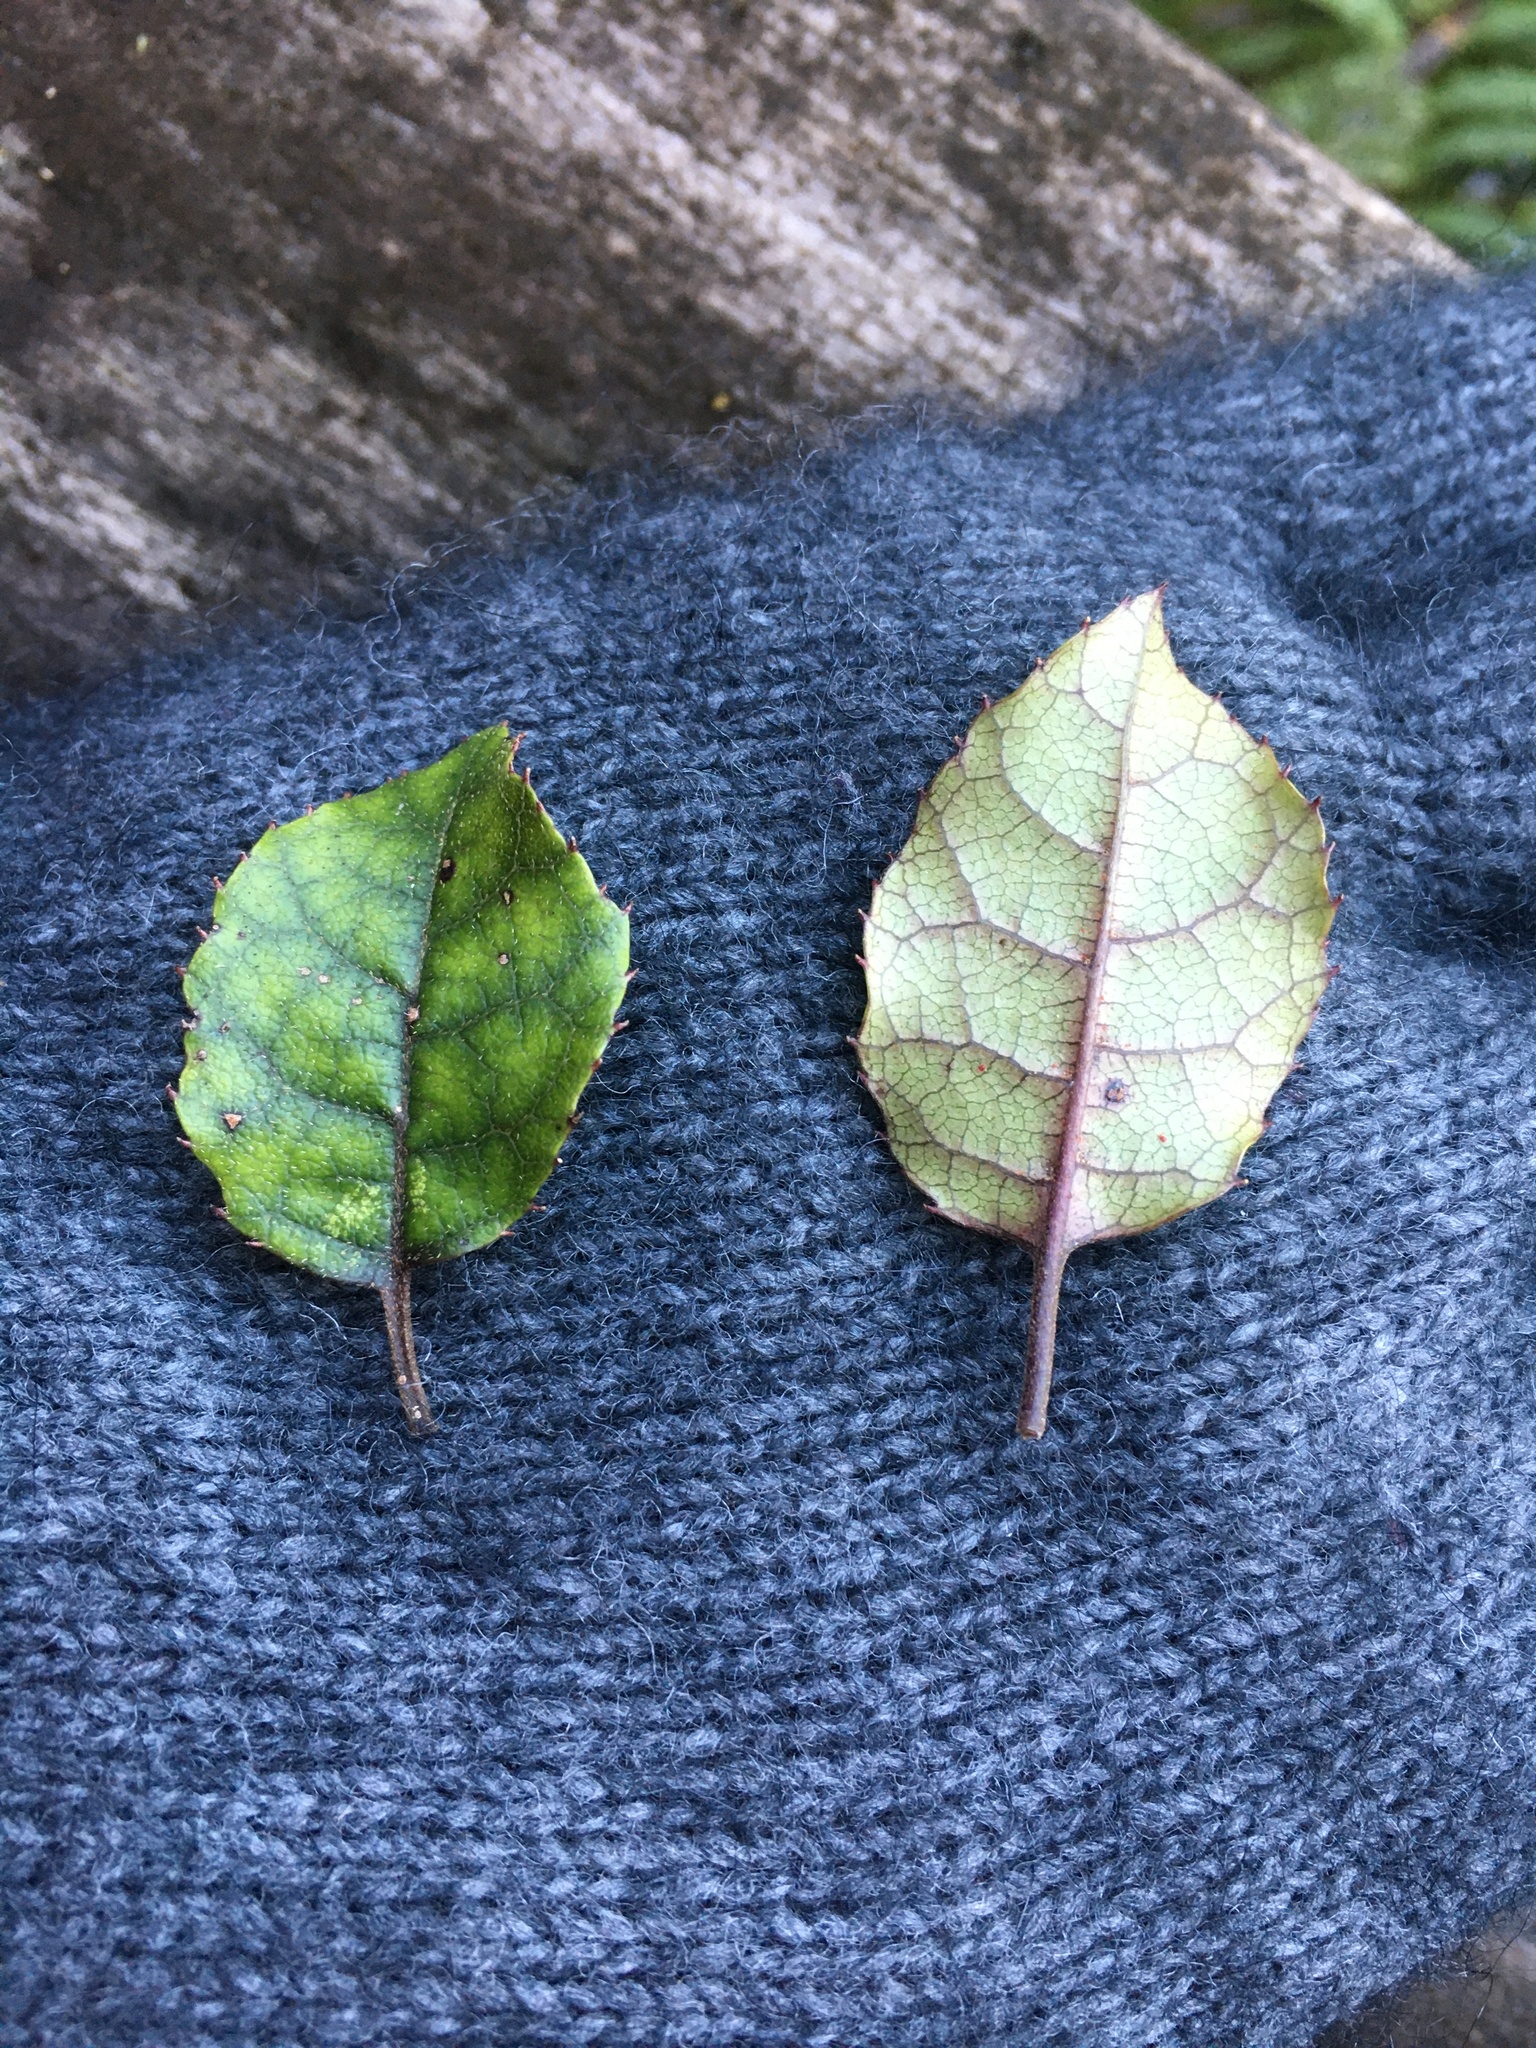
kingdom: Plantae
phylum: Tracheophyta
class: Magnoliopsida
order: Asterales
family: Rousseaceae
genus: Carpodetus
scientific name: Carpodetus serratus
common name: White mapau
